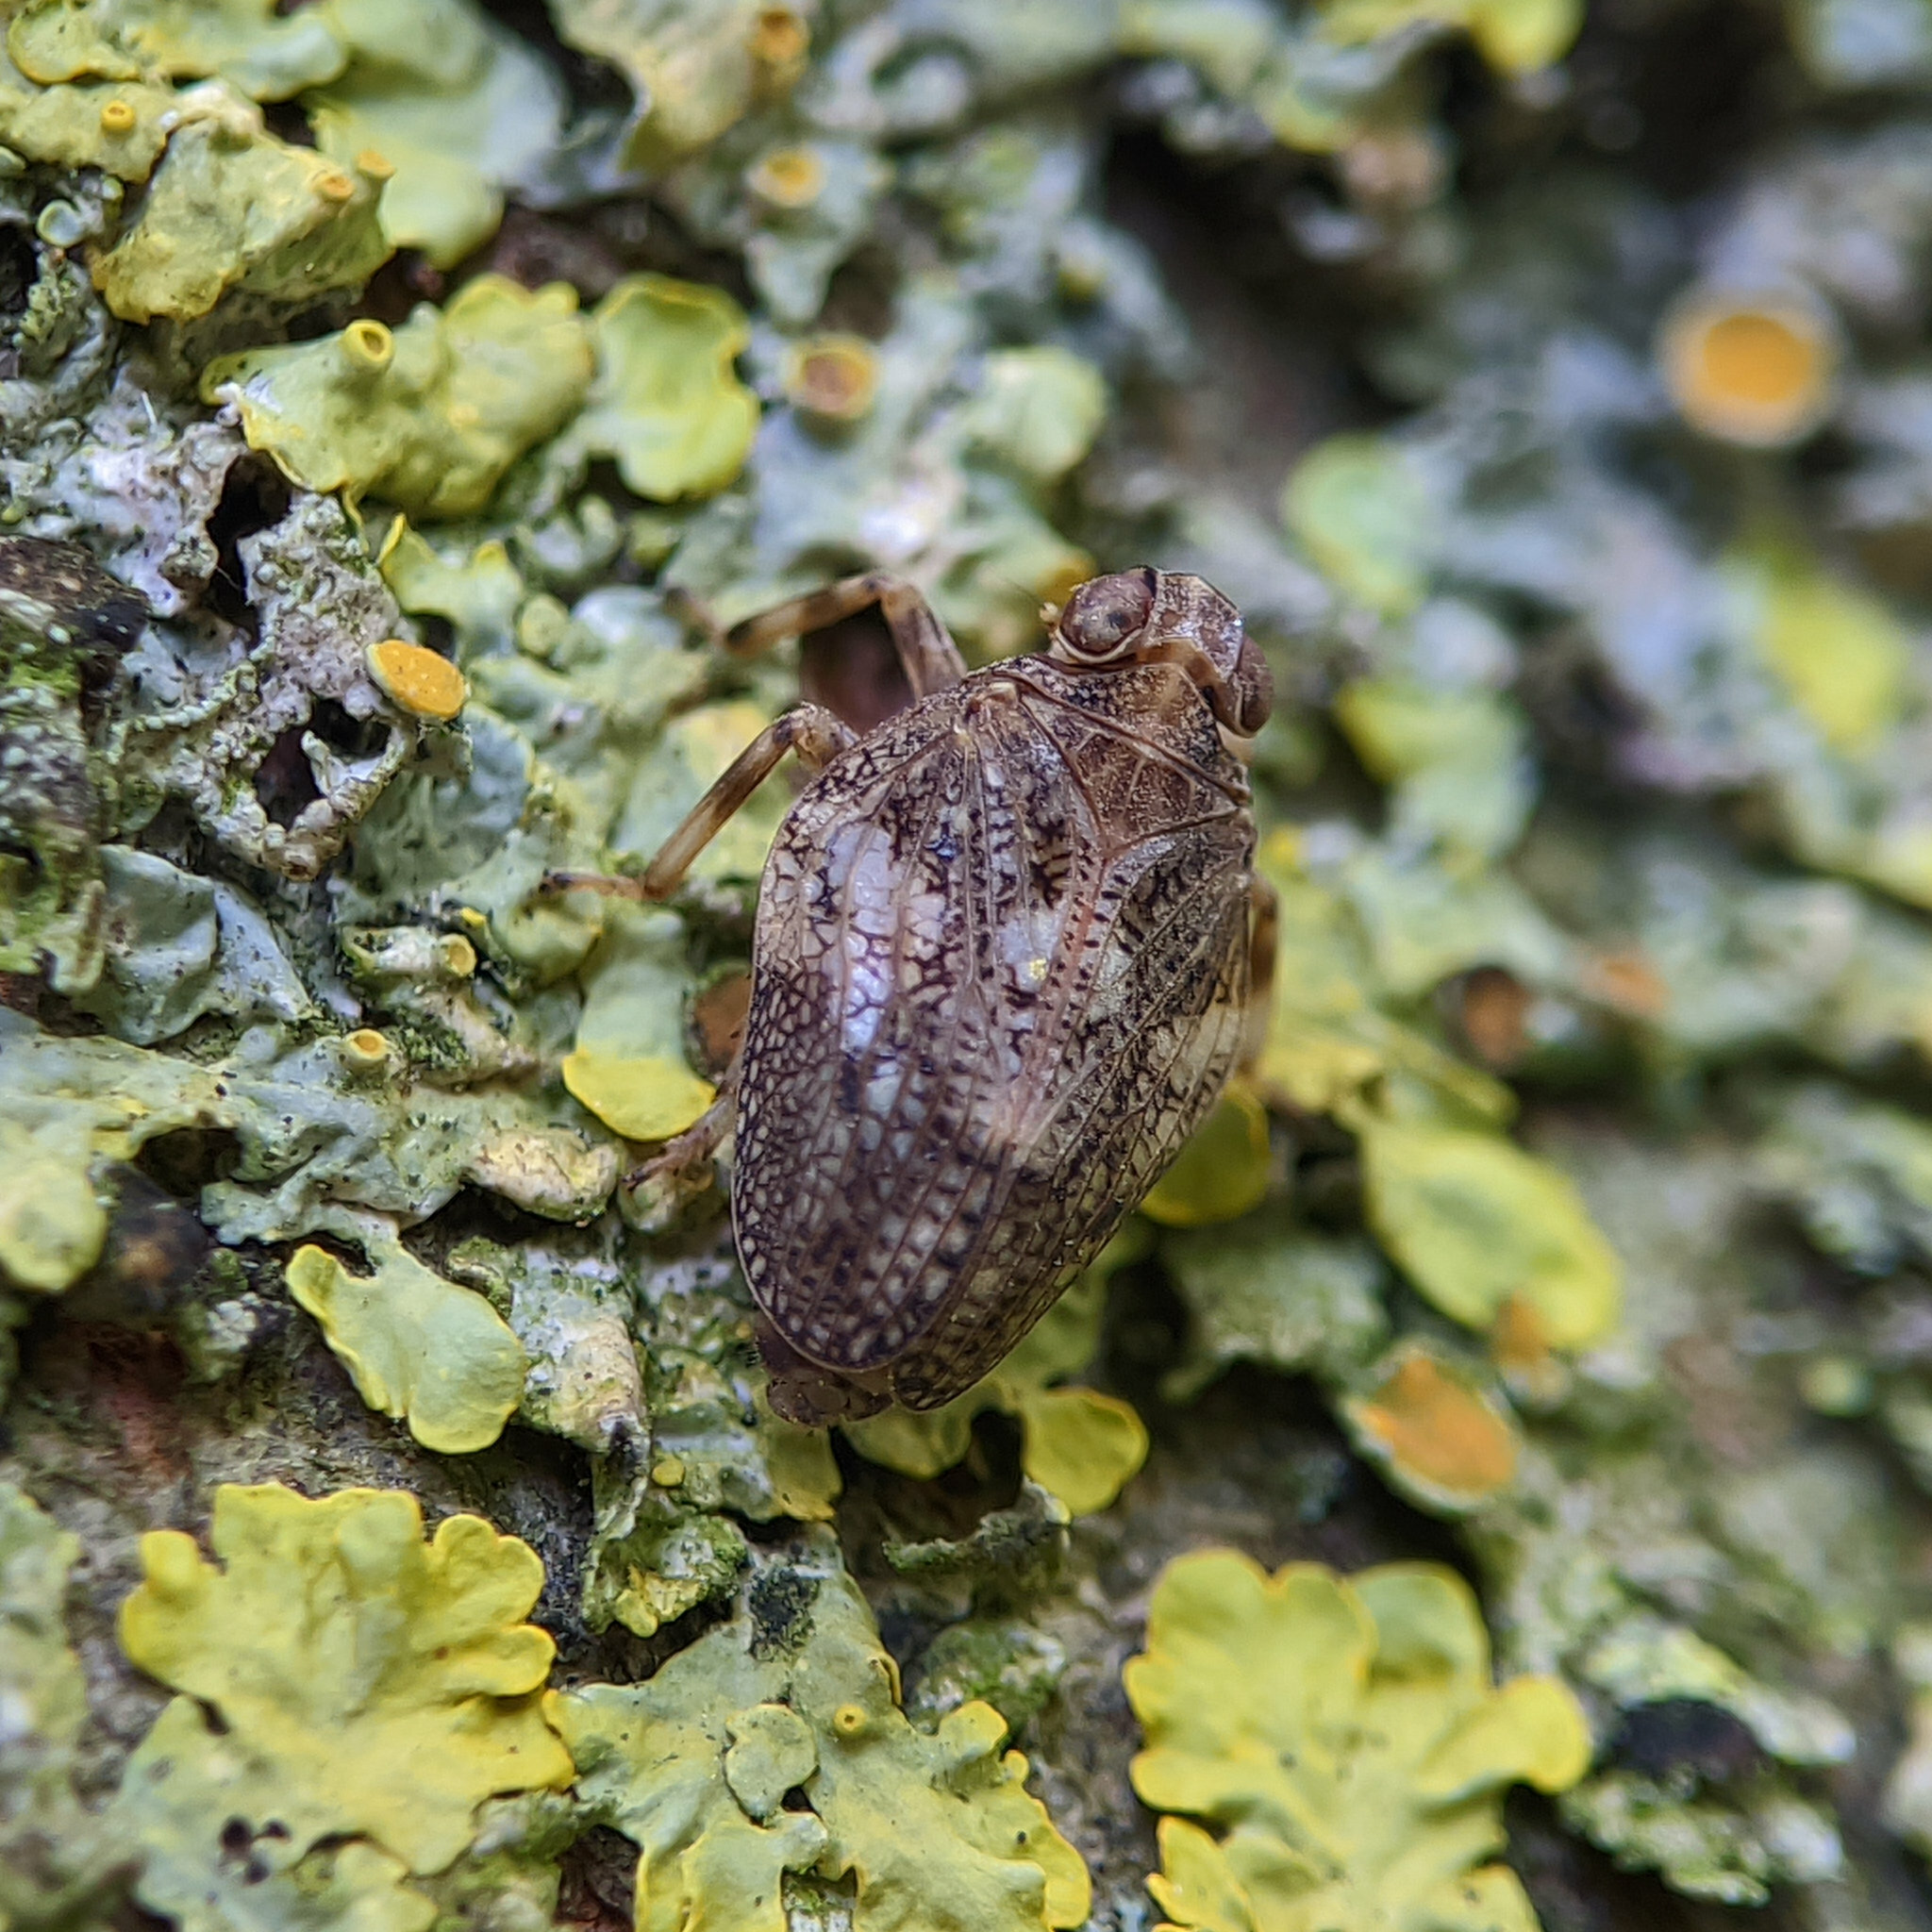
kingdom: Animalia
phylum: Arthropoda
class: Insecta
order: Hemiptera
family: Issidae
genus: Issus
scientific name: Issus coleoptratus
